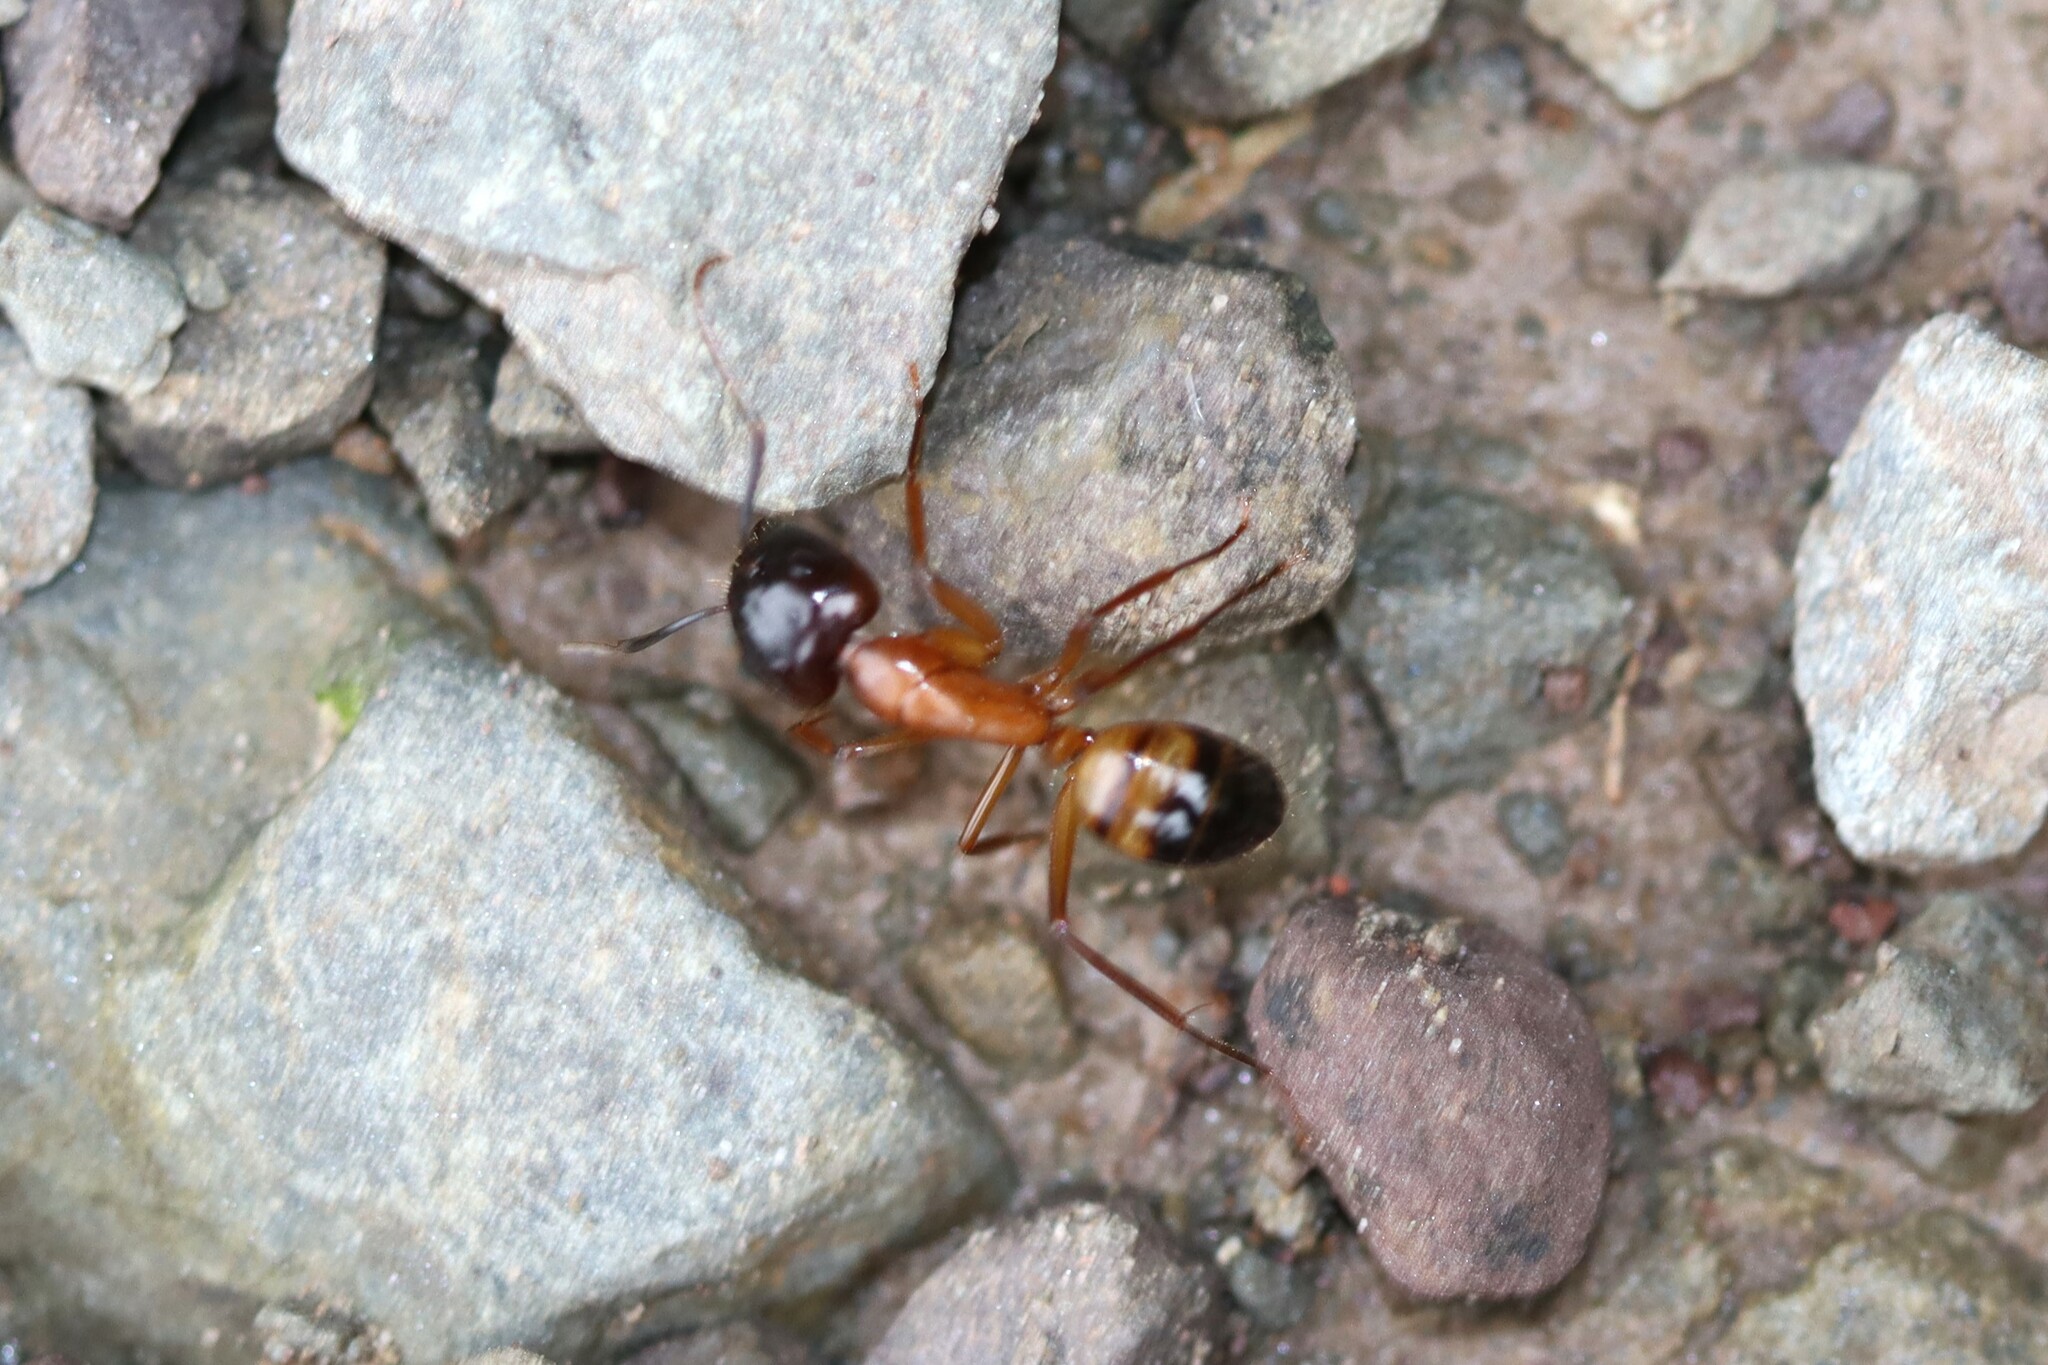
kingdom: Animalia
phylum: Arthropoda
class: Insecta
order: Hymenoptera
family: Formicidae
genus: Camponotus
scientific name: Camponotus
